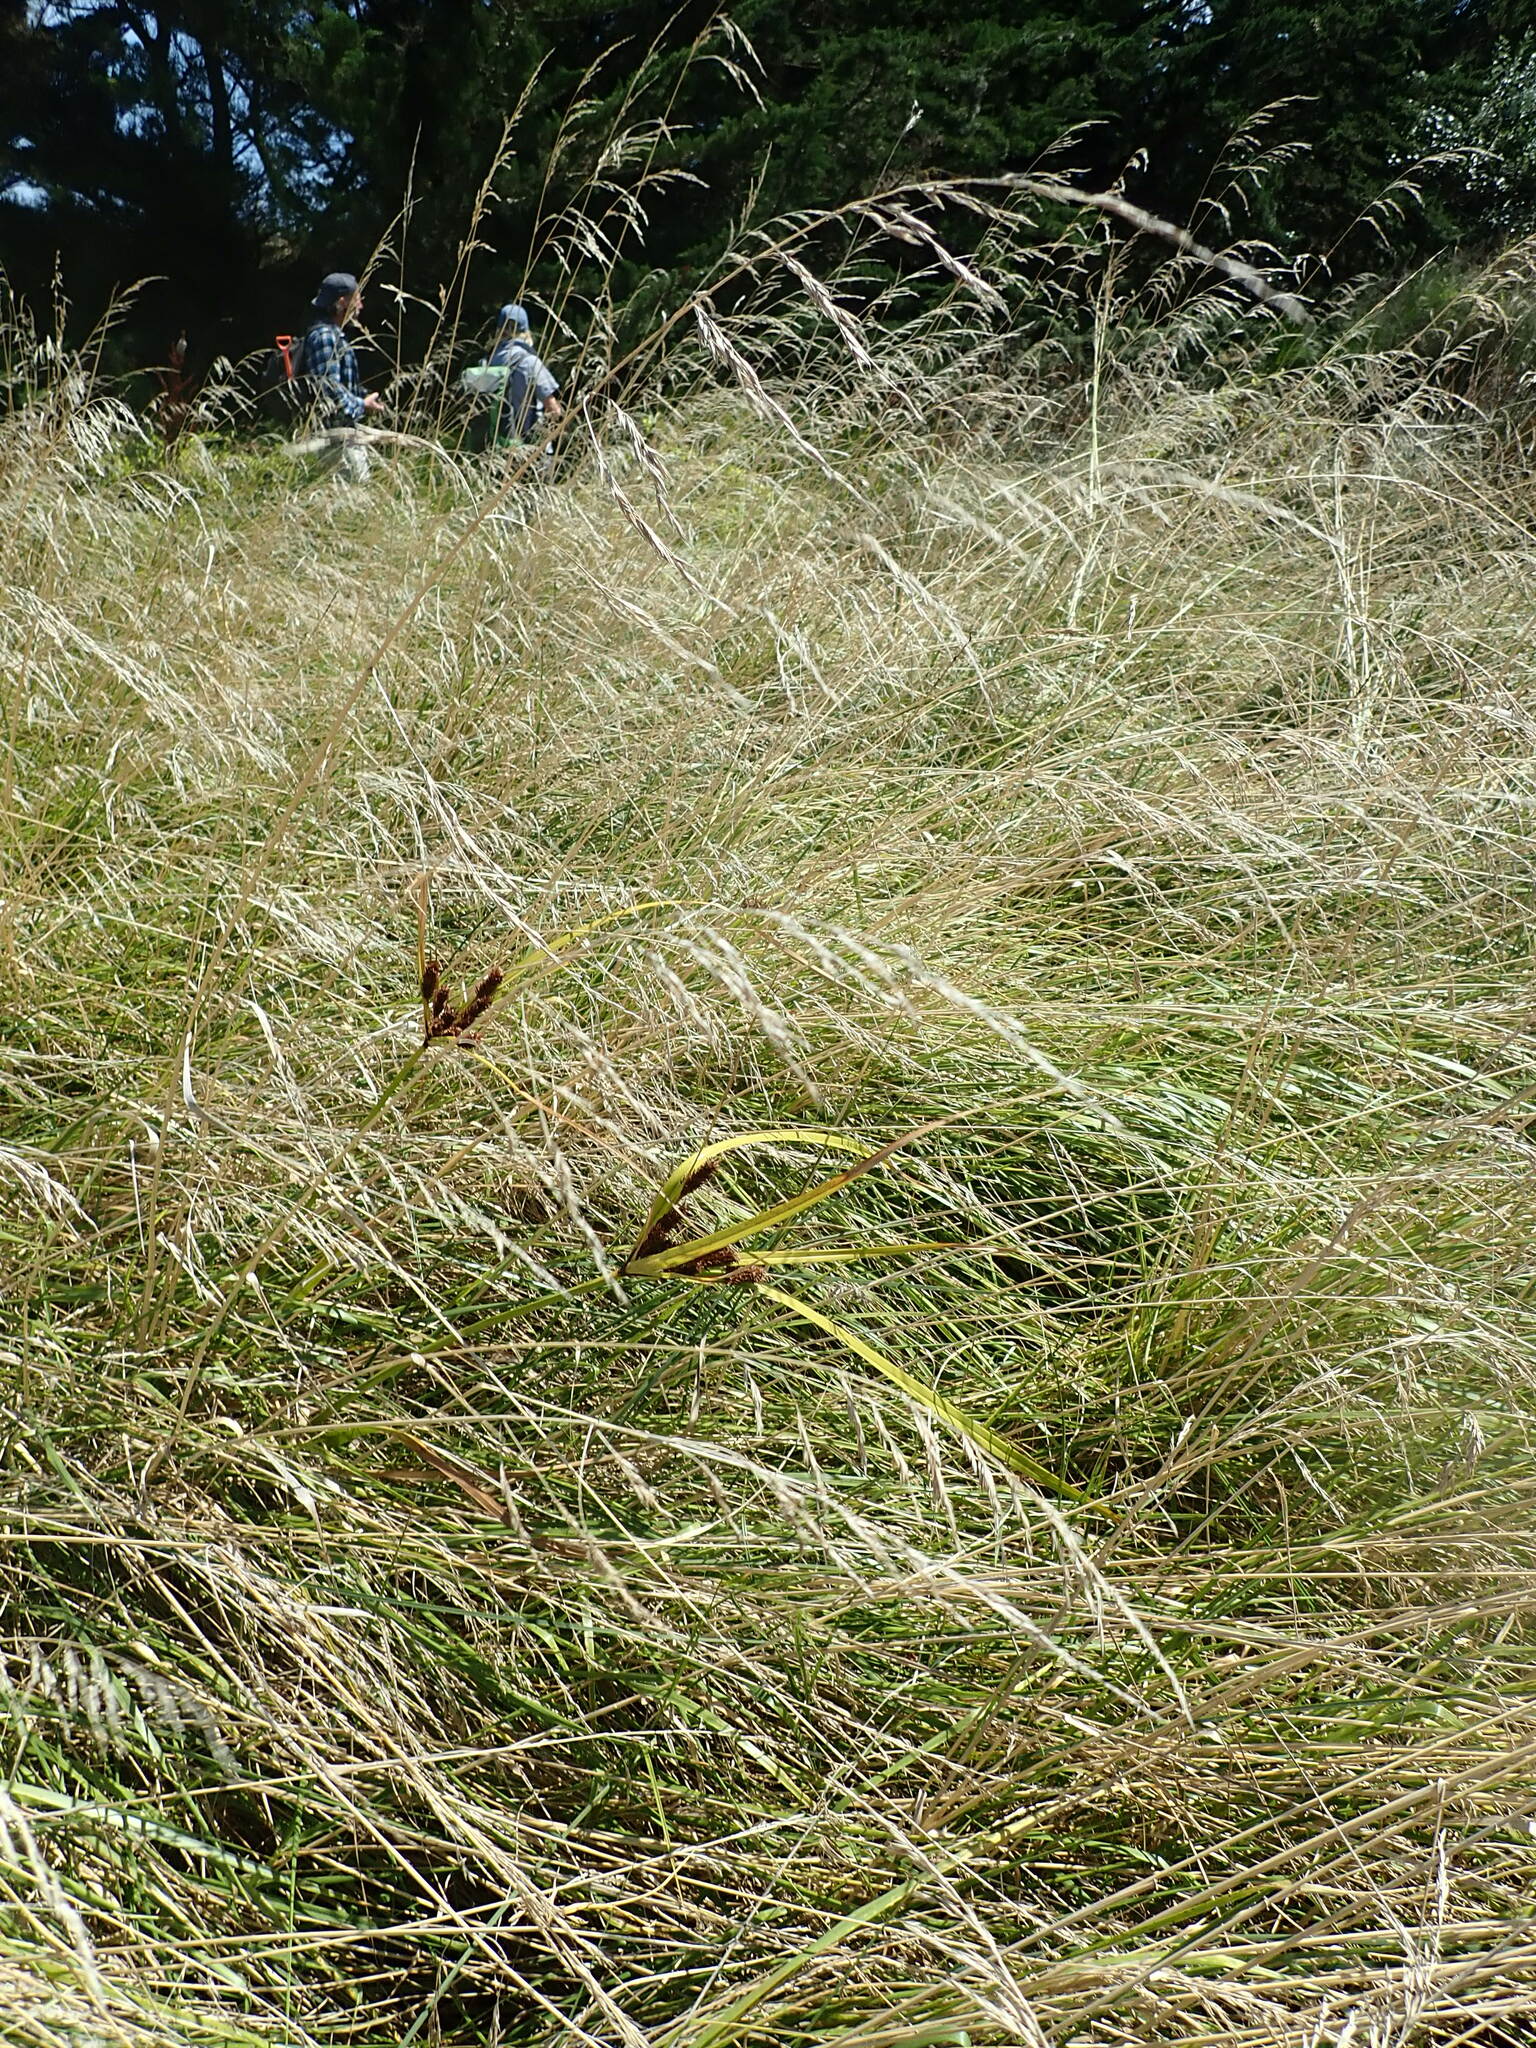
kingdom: Plantae
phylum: Tracheophyta
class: Liliopsida
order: Poales
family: Cyperaceae
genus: Cyperus
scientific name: Cyperus ustulatus
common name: Giant umbrella-sedge
